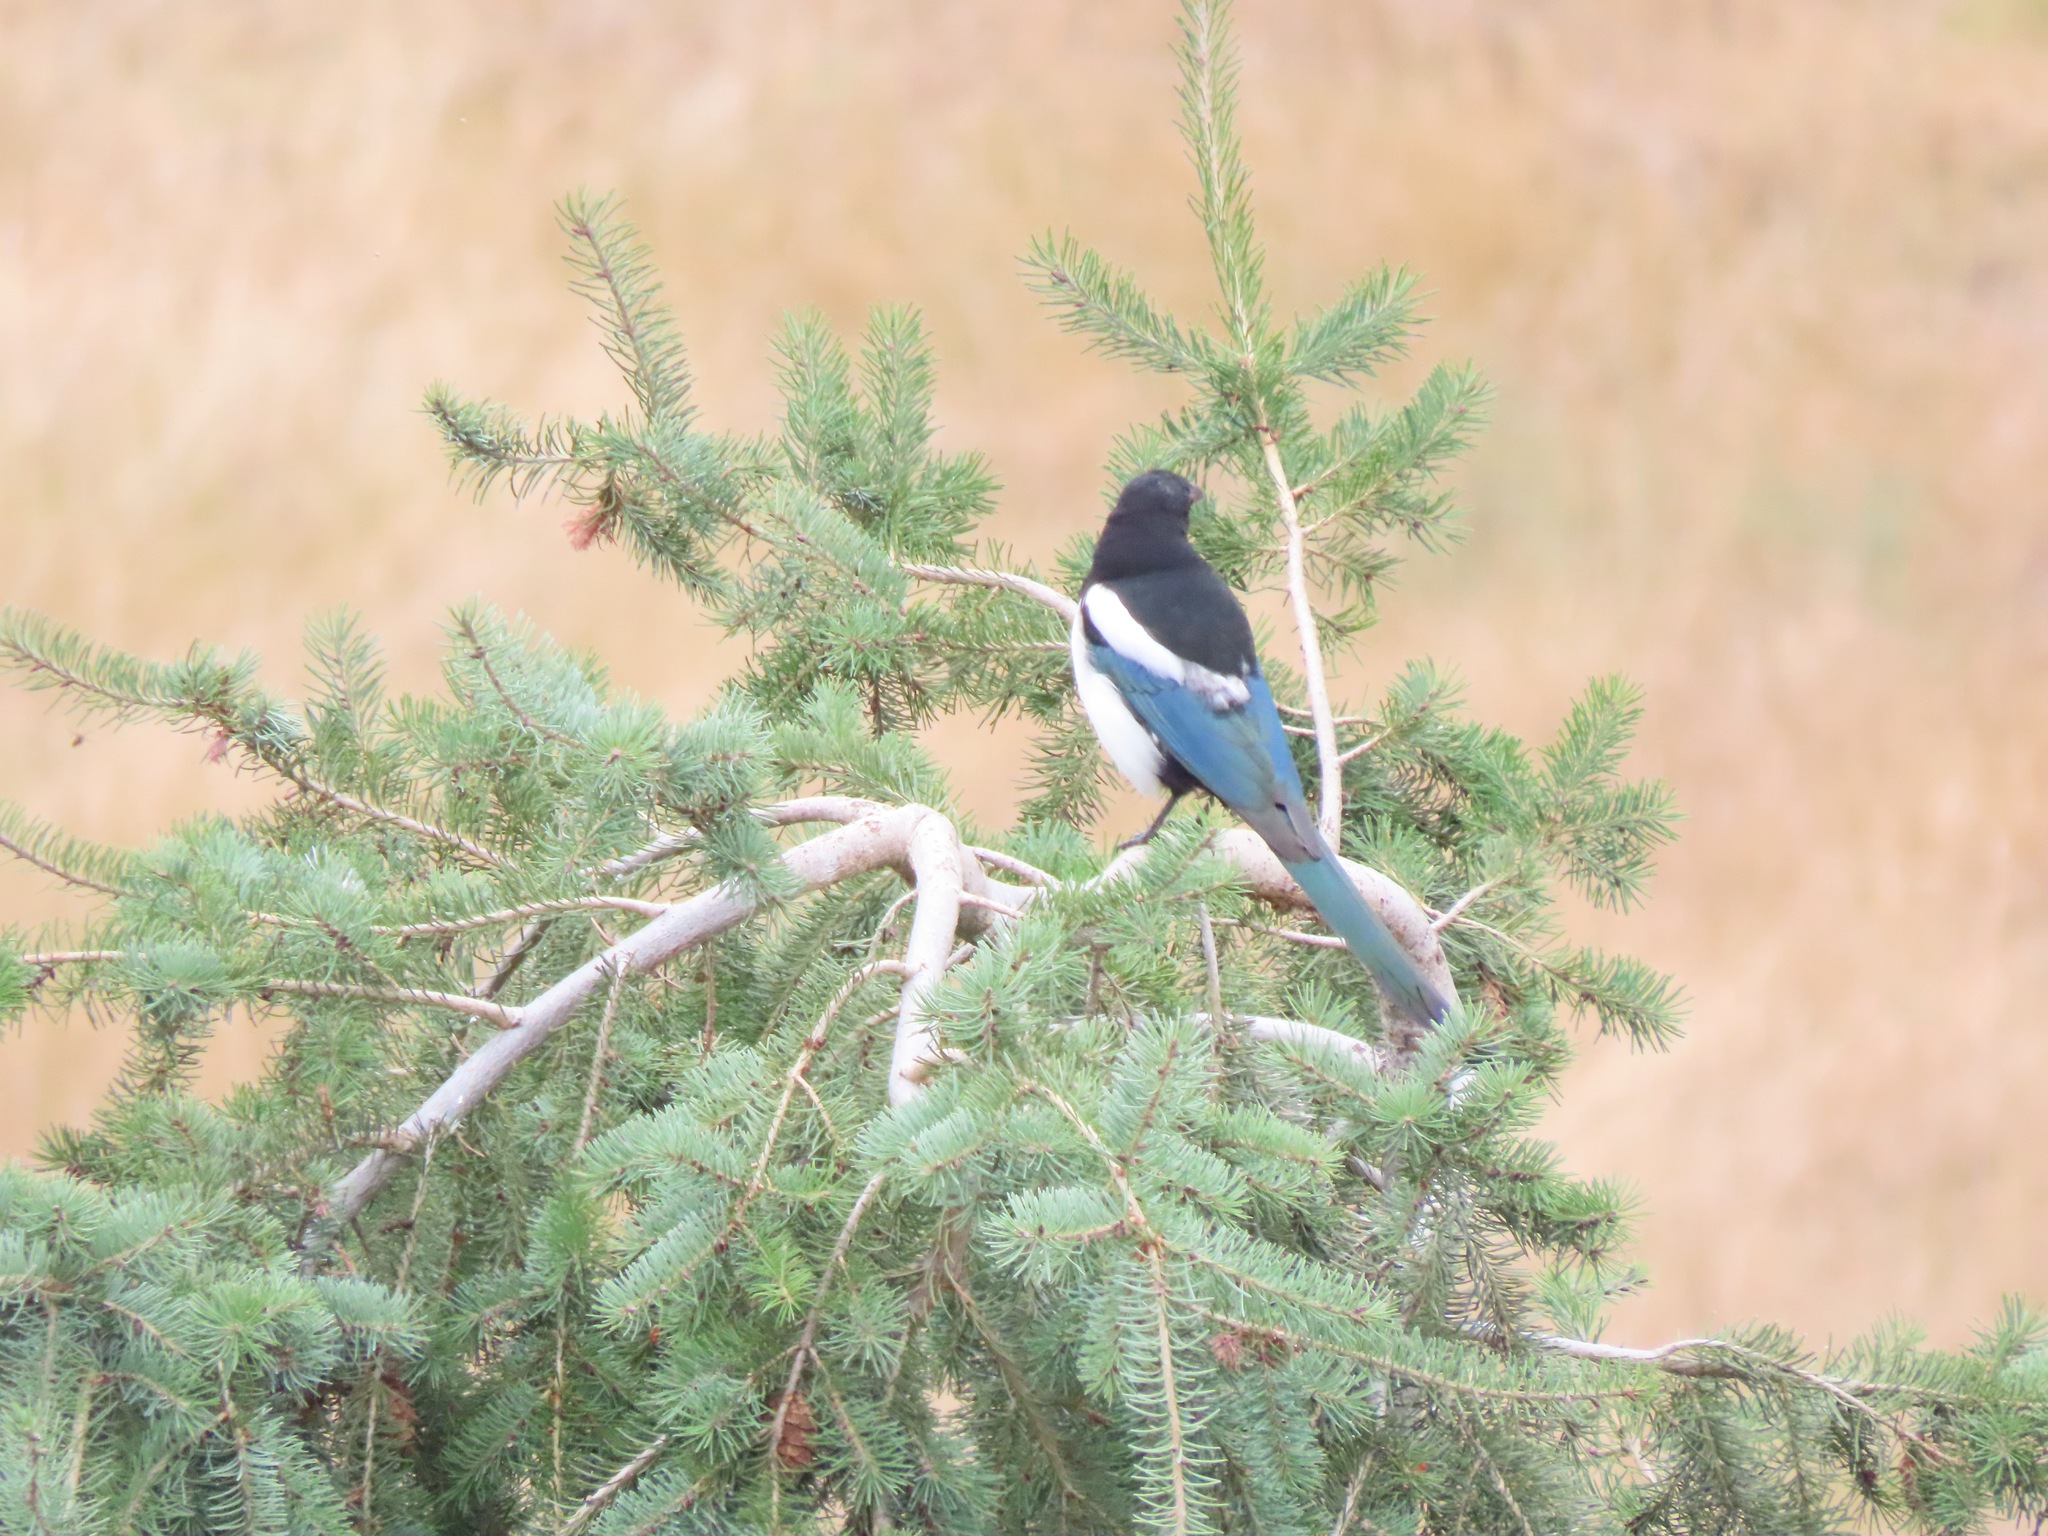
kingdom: Animalia
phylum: Chordata
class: Aves
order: Passeriformes
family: Corvidae
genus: Pica
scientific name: Pica hudsonia
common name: Black-billed magpie
